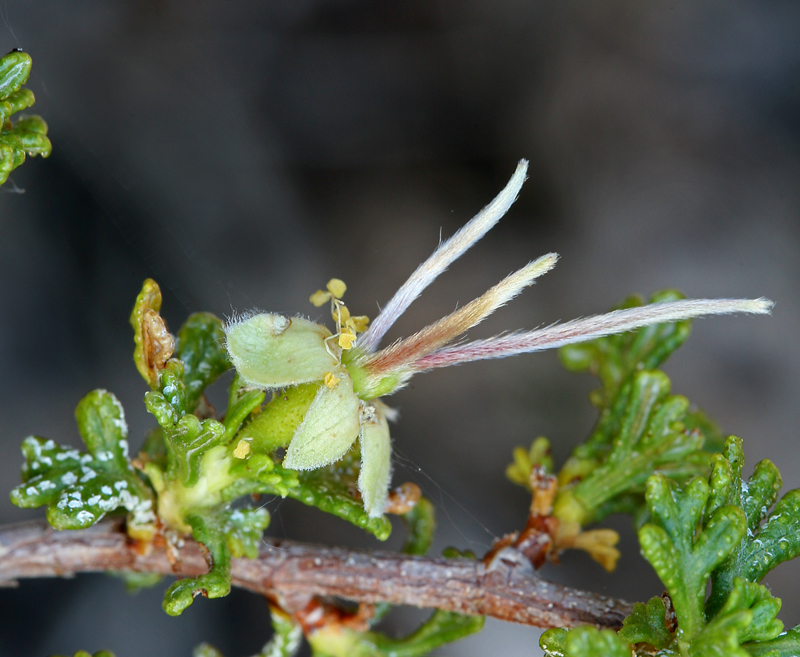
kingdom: Plantae
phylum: Tracheophyta
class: Magnoliopsida
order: Rosales
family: Rosaceae
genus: Purshia
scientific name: Purshia stansburiana
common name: Stansbury's cliffrose
